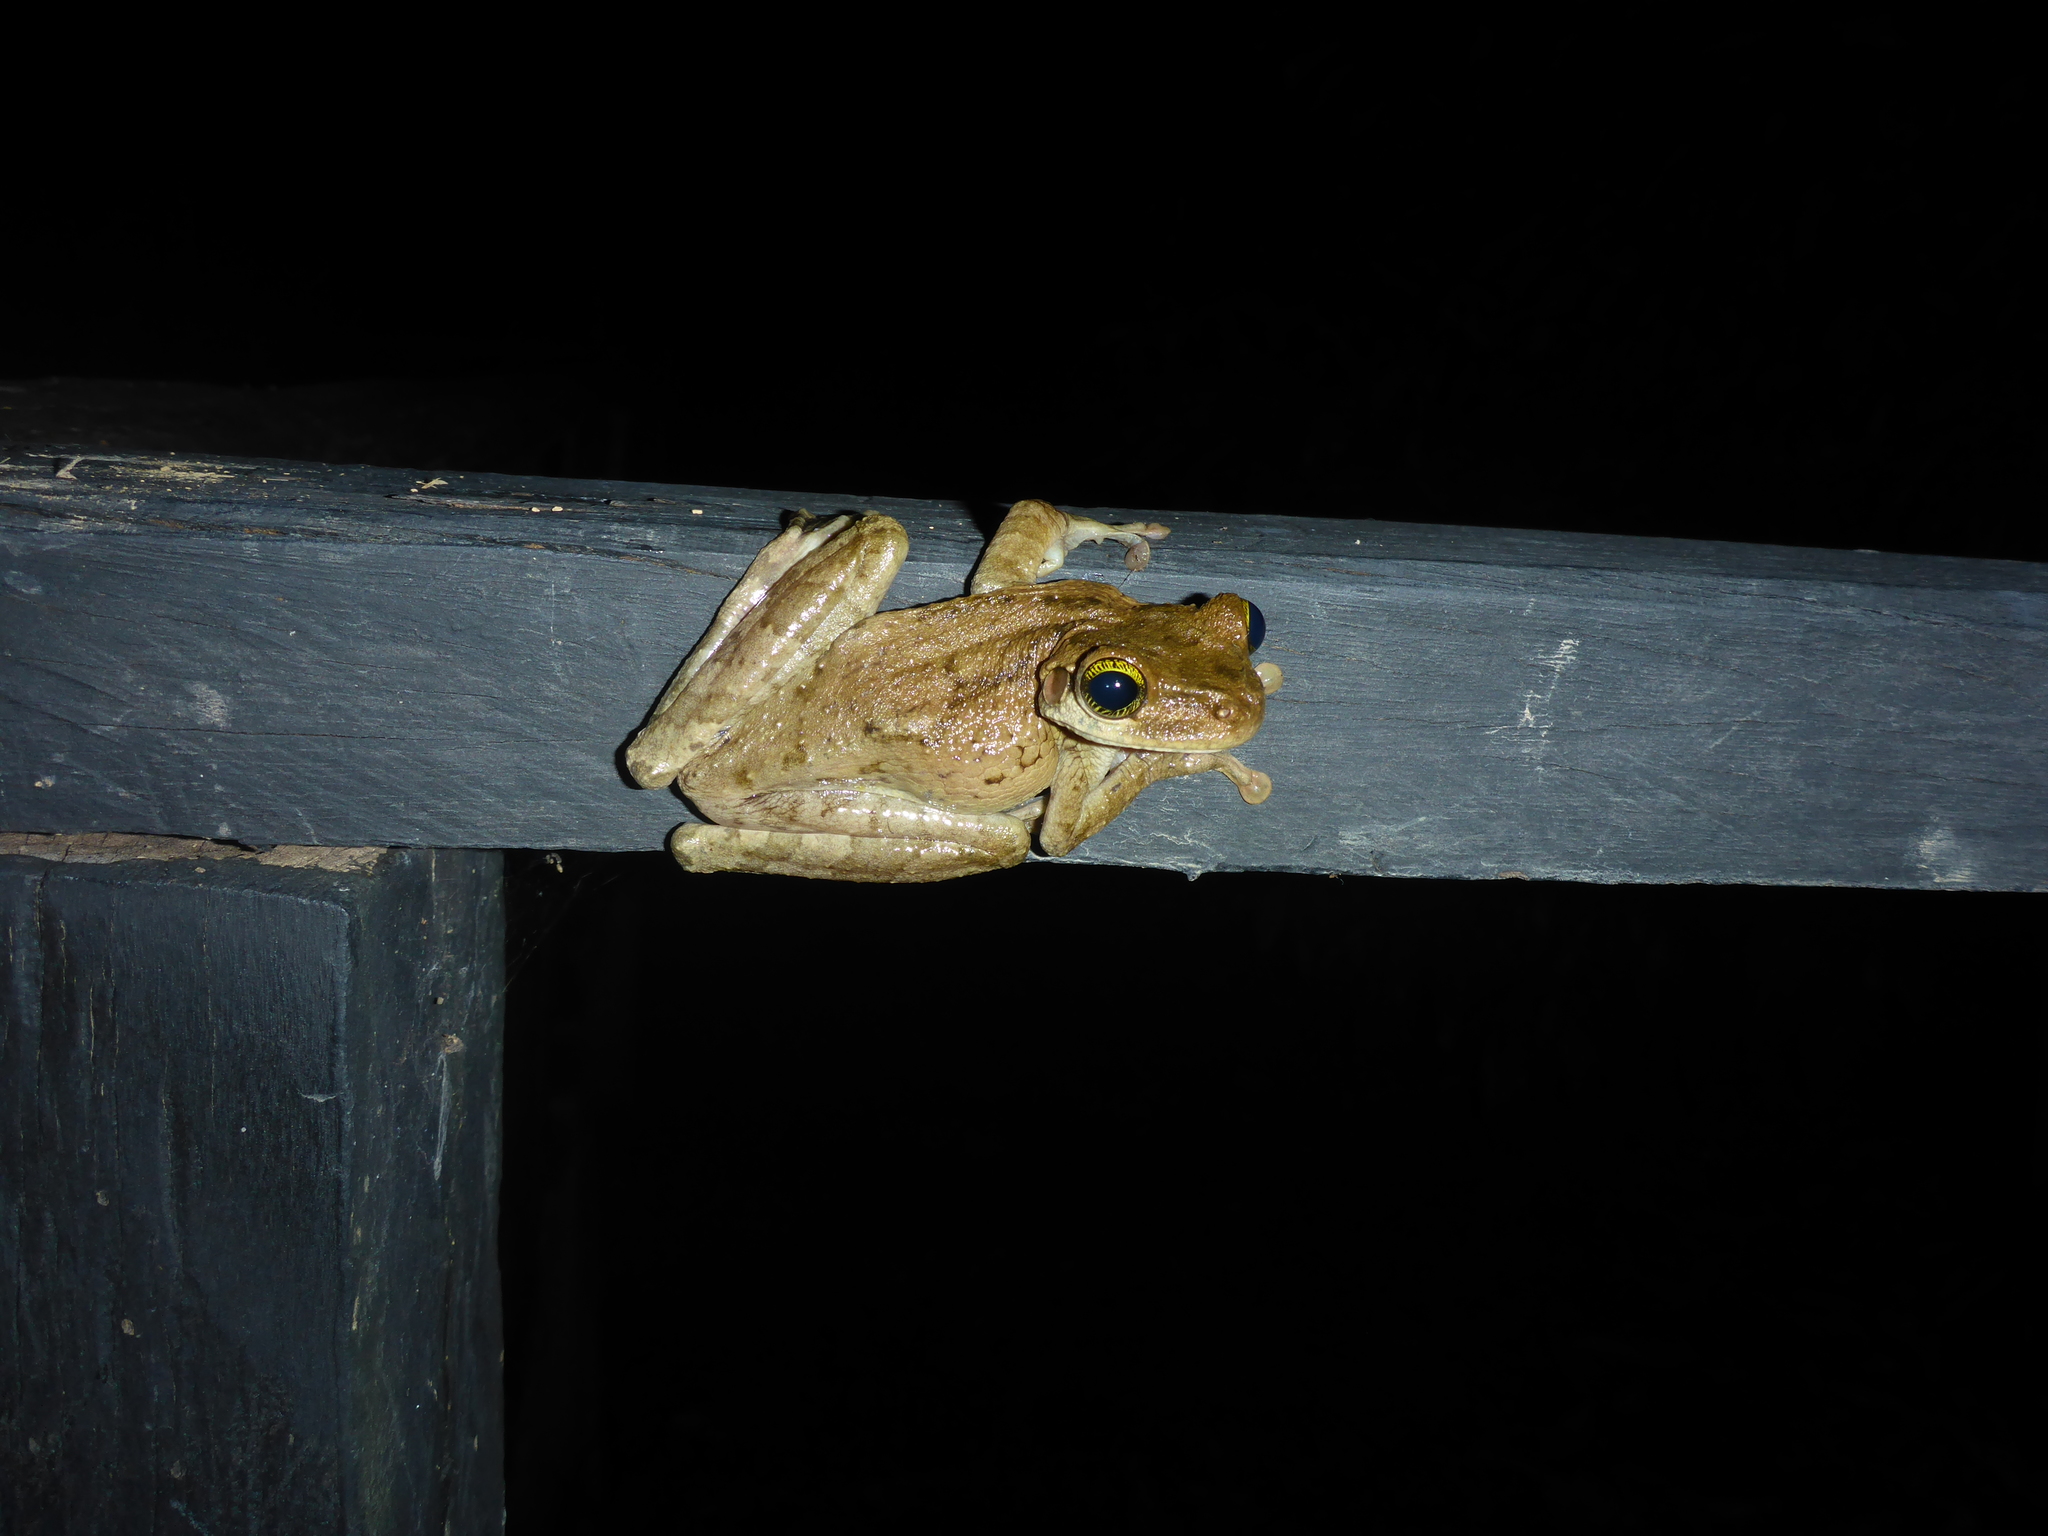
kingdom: Animalia
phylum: Chordata
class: Amphibia
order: Anura
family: Hylidae
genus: Osteocephalus
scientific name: Osteocephalus taurinus
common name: Manaus slender-legged treefrog
